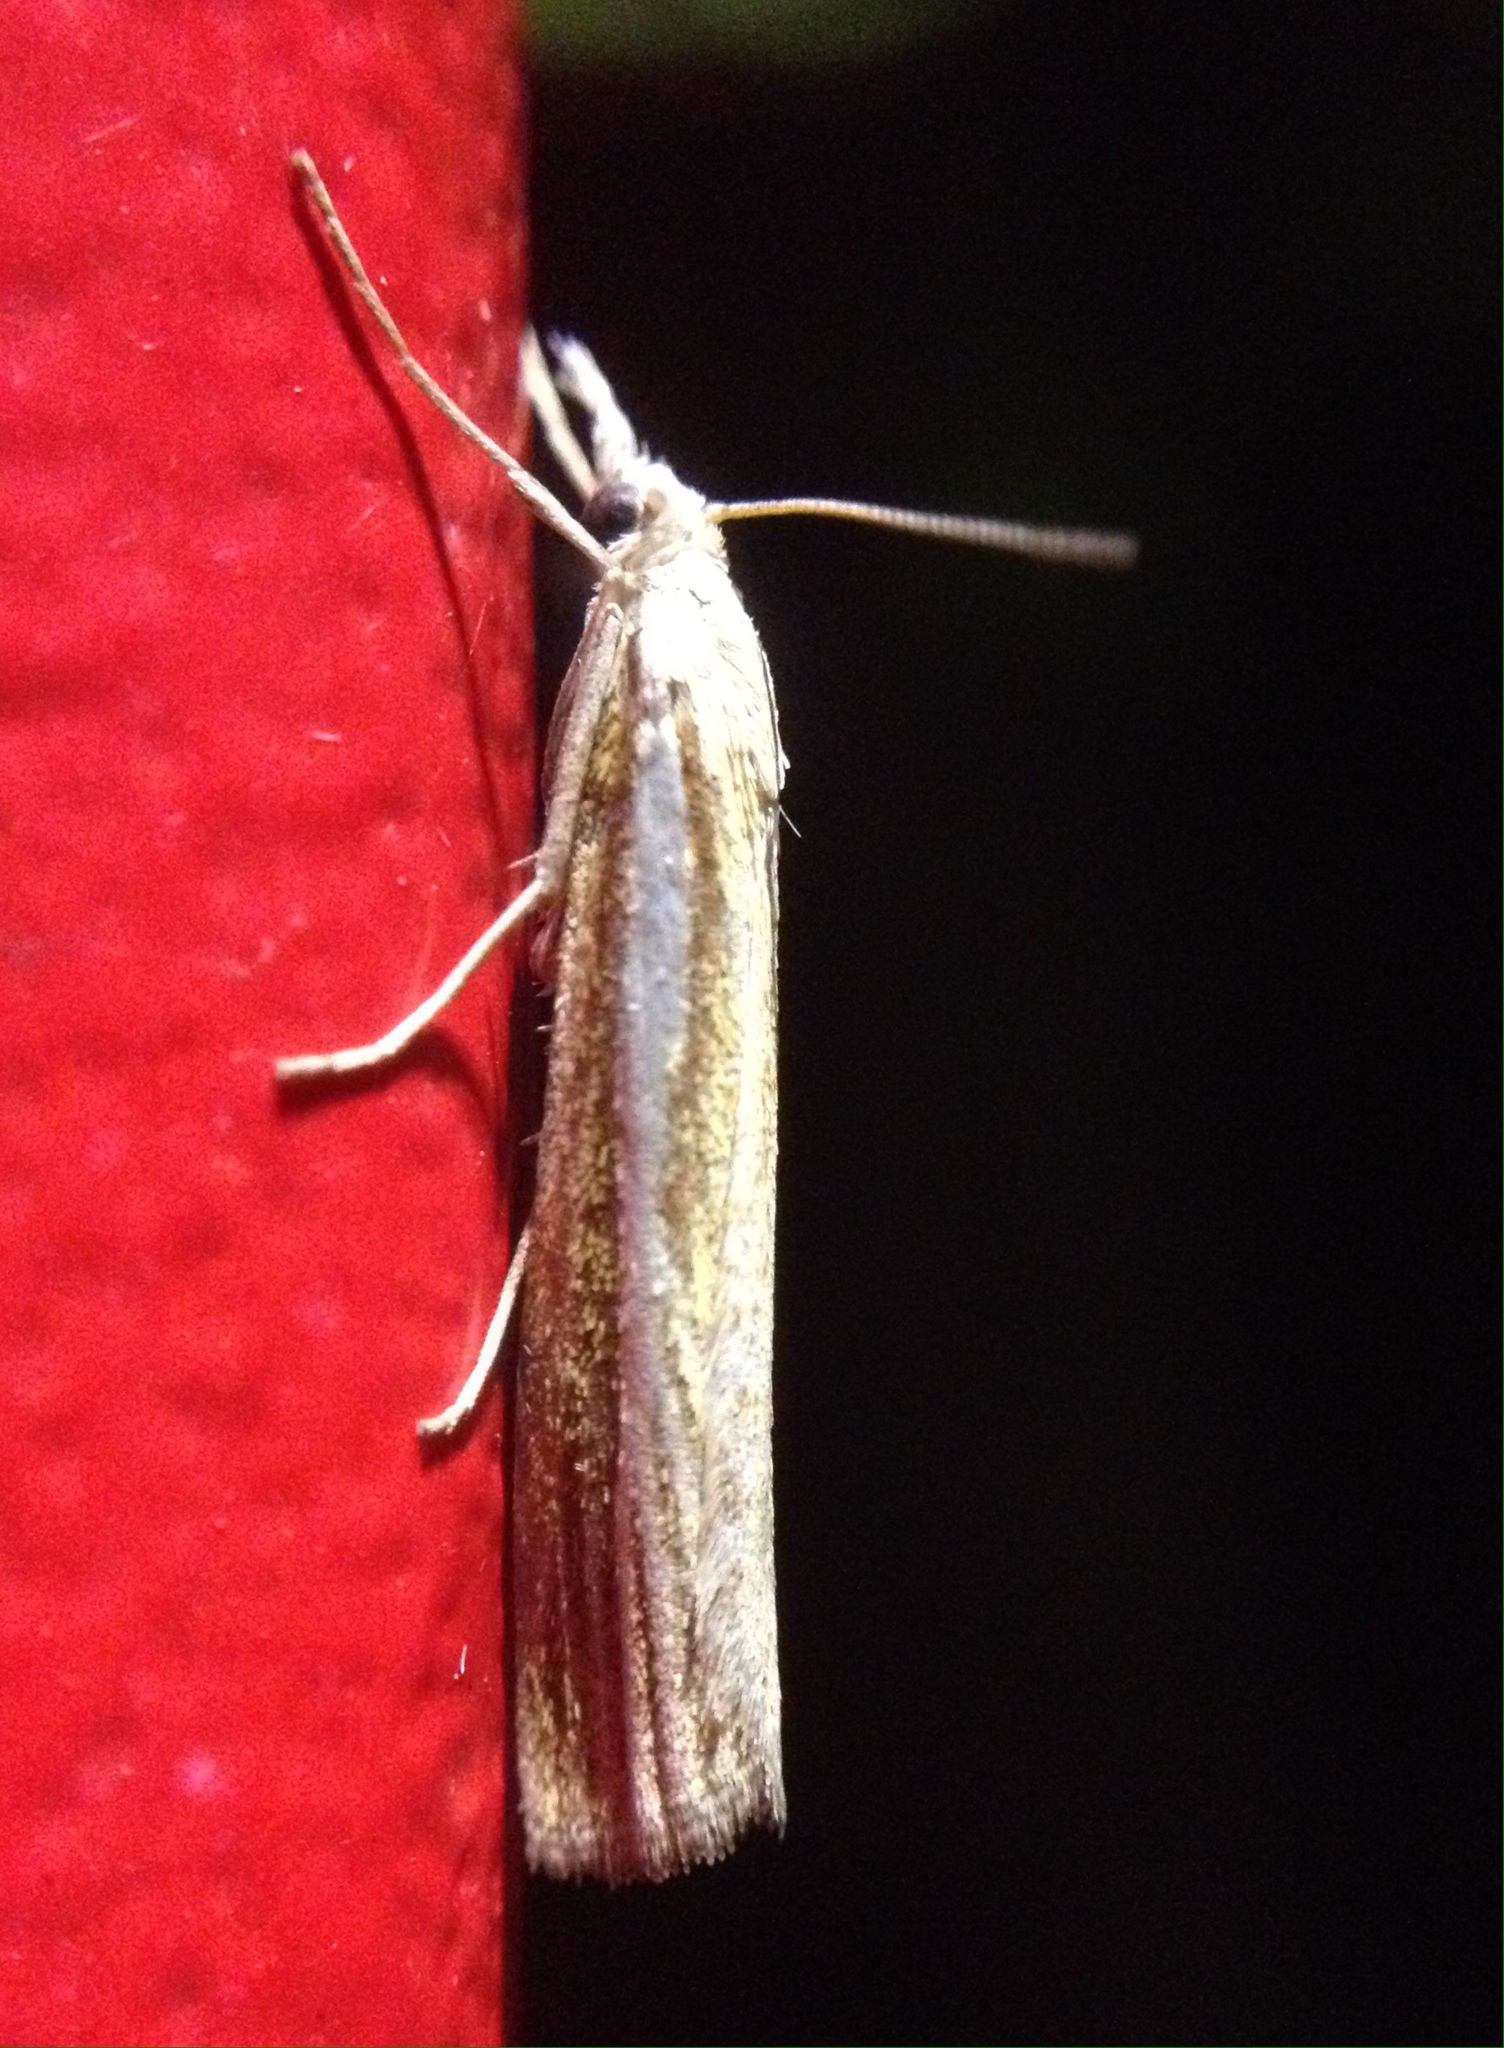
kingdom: Animalia
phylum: Arthropoda
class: Insecta
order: Lepidoptera
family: Crambidae
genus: Agriphila
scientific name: Agriphila tristellus
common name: Common grass-veneer
